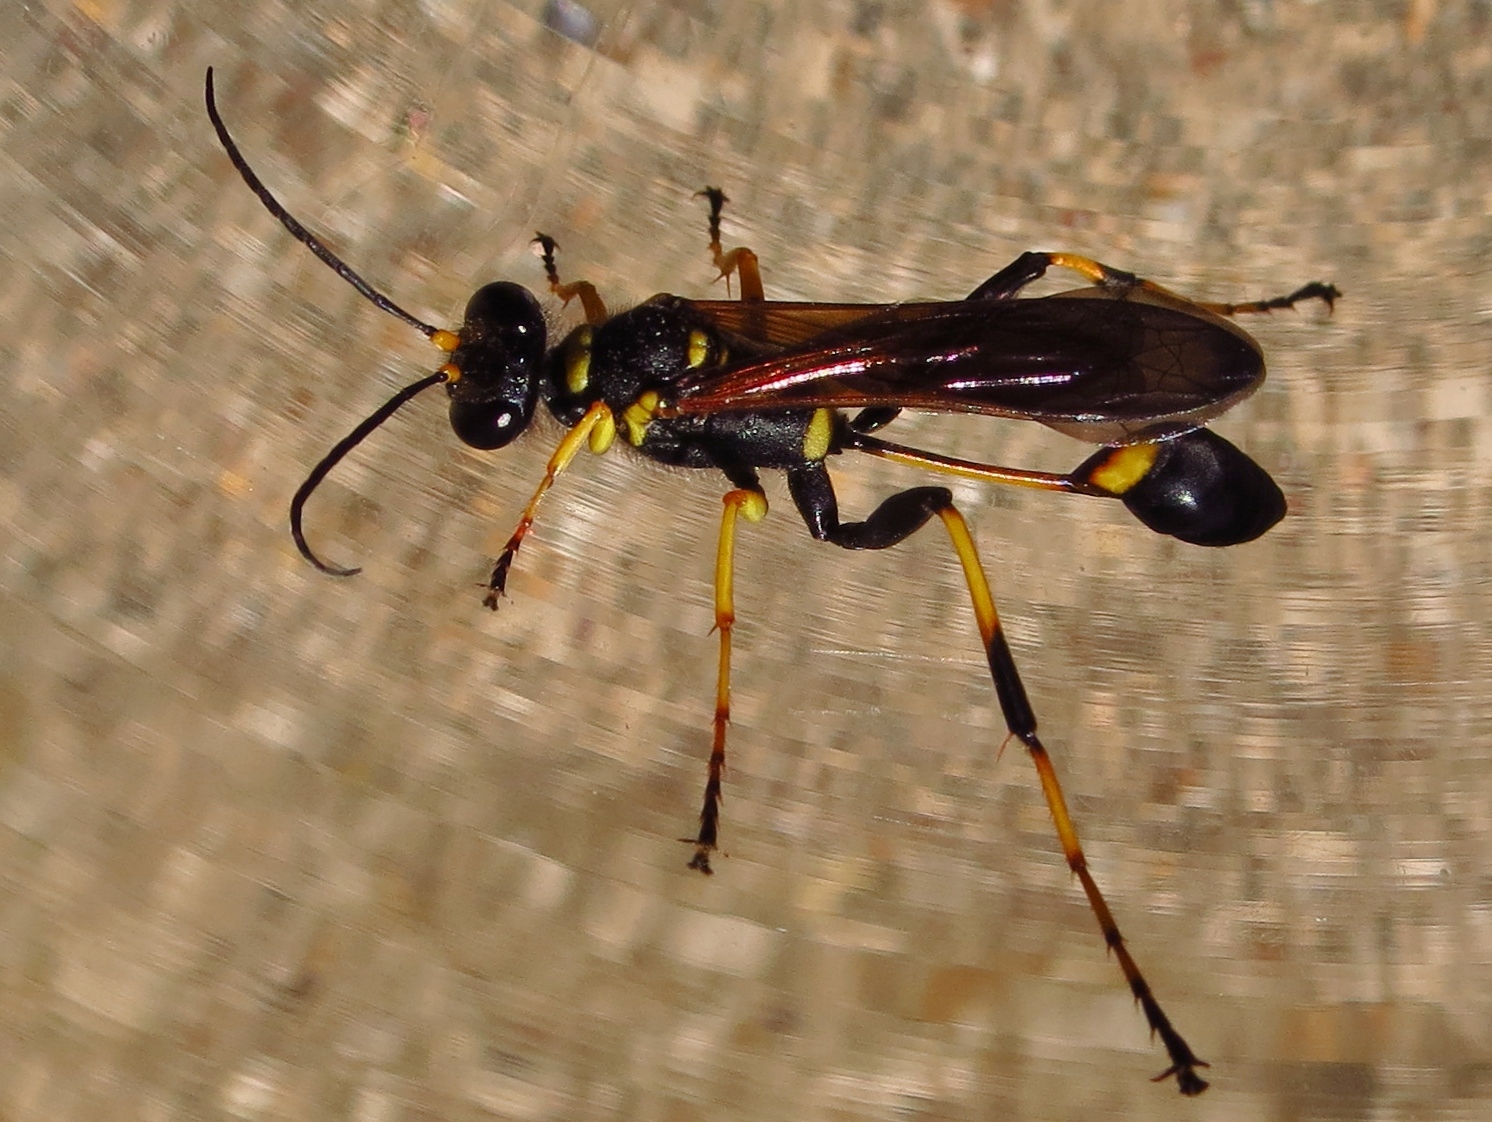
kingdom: Animalia
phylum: Arthropoda
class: Insecta
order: Hymenoptera
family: Sphecidae
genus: Sceliphron
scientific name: Sceliphron caementarium
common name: Mud dauber
